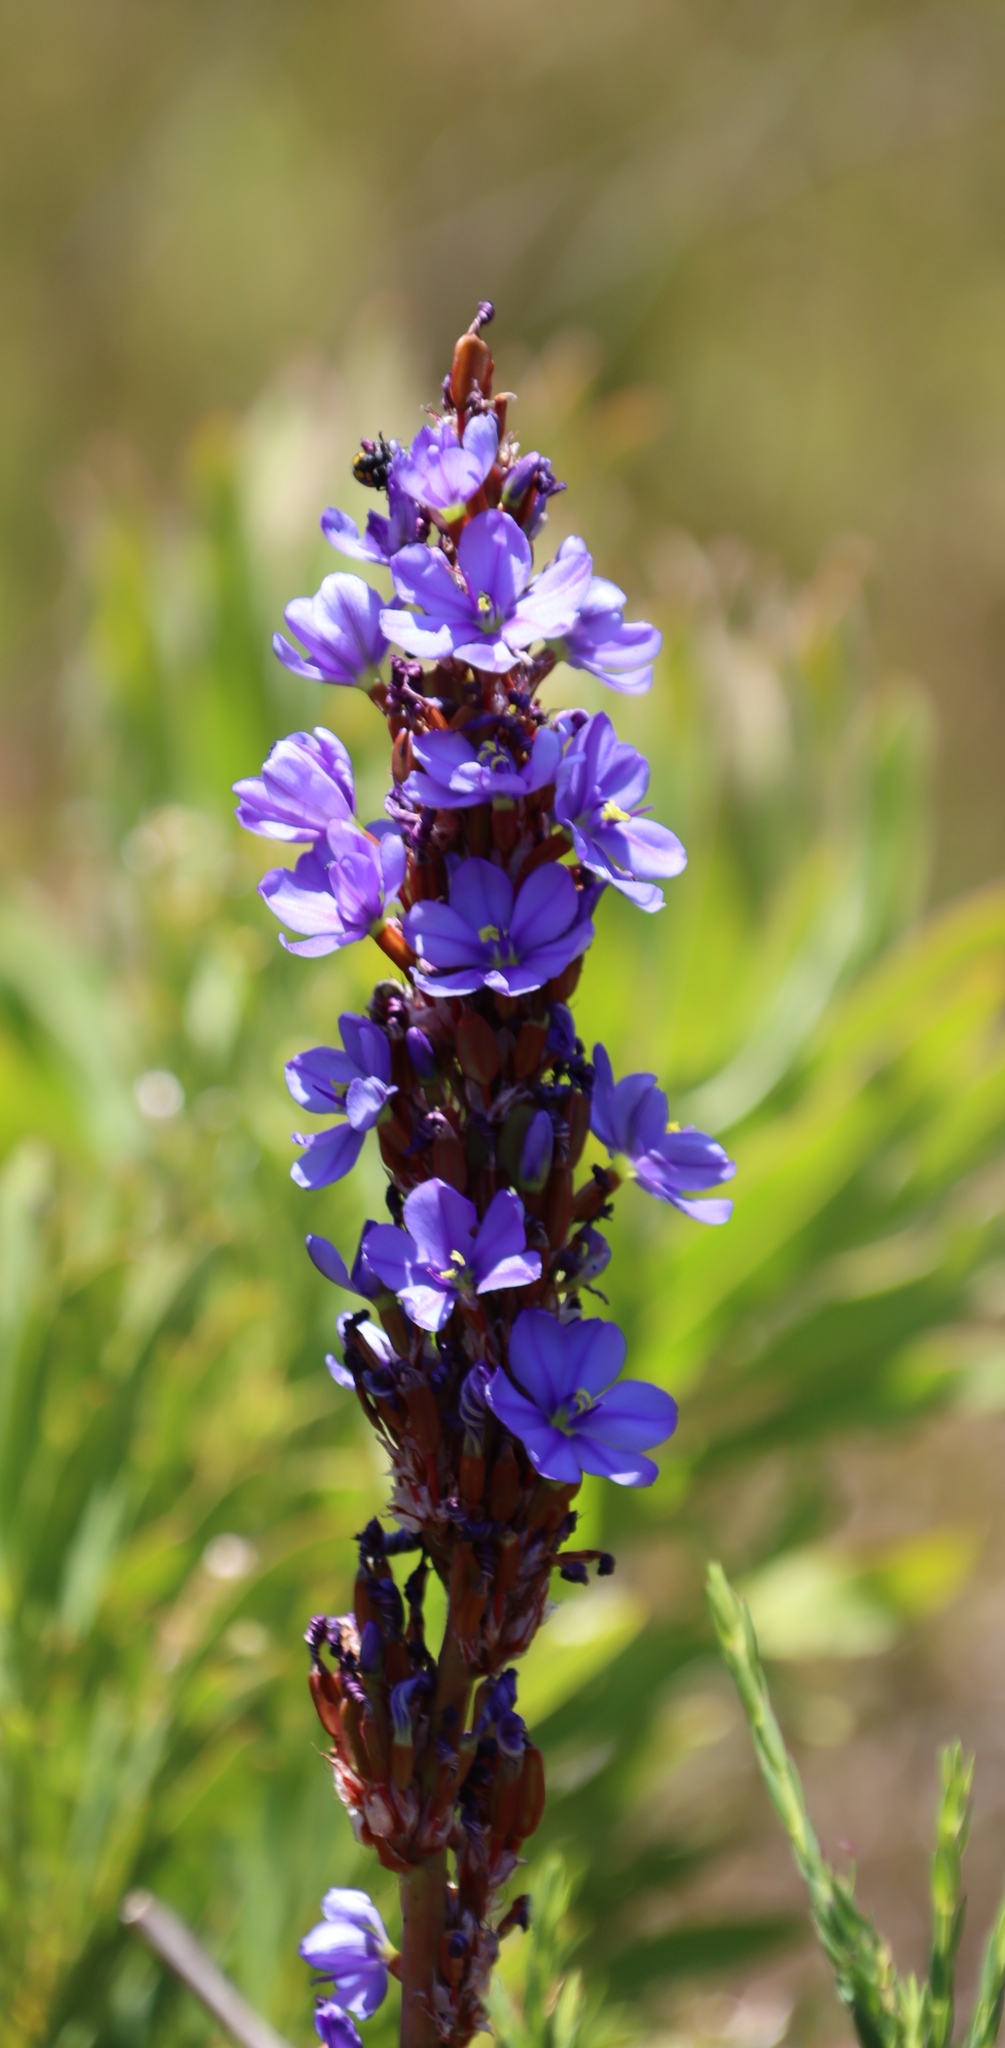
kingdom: Plantae
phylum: Tracheophyta
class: Liliopsida
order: Asparagales
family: Iridaceae
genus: Aristea
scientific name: Aristea capitata
